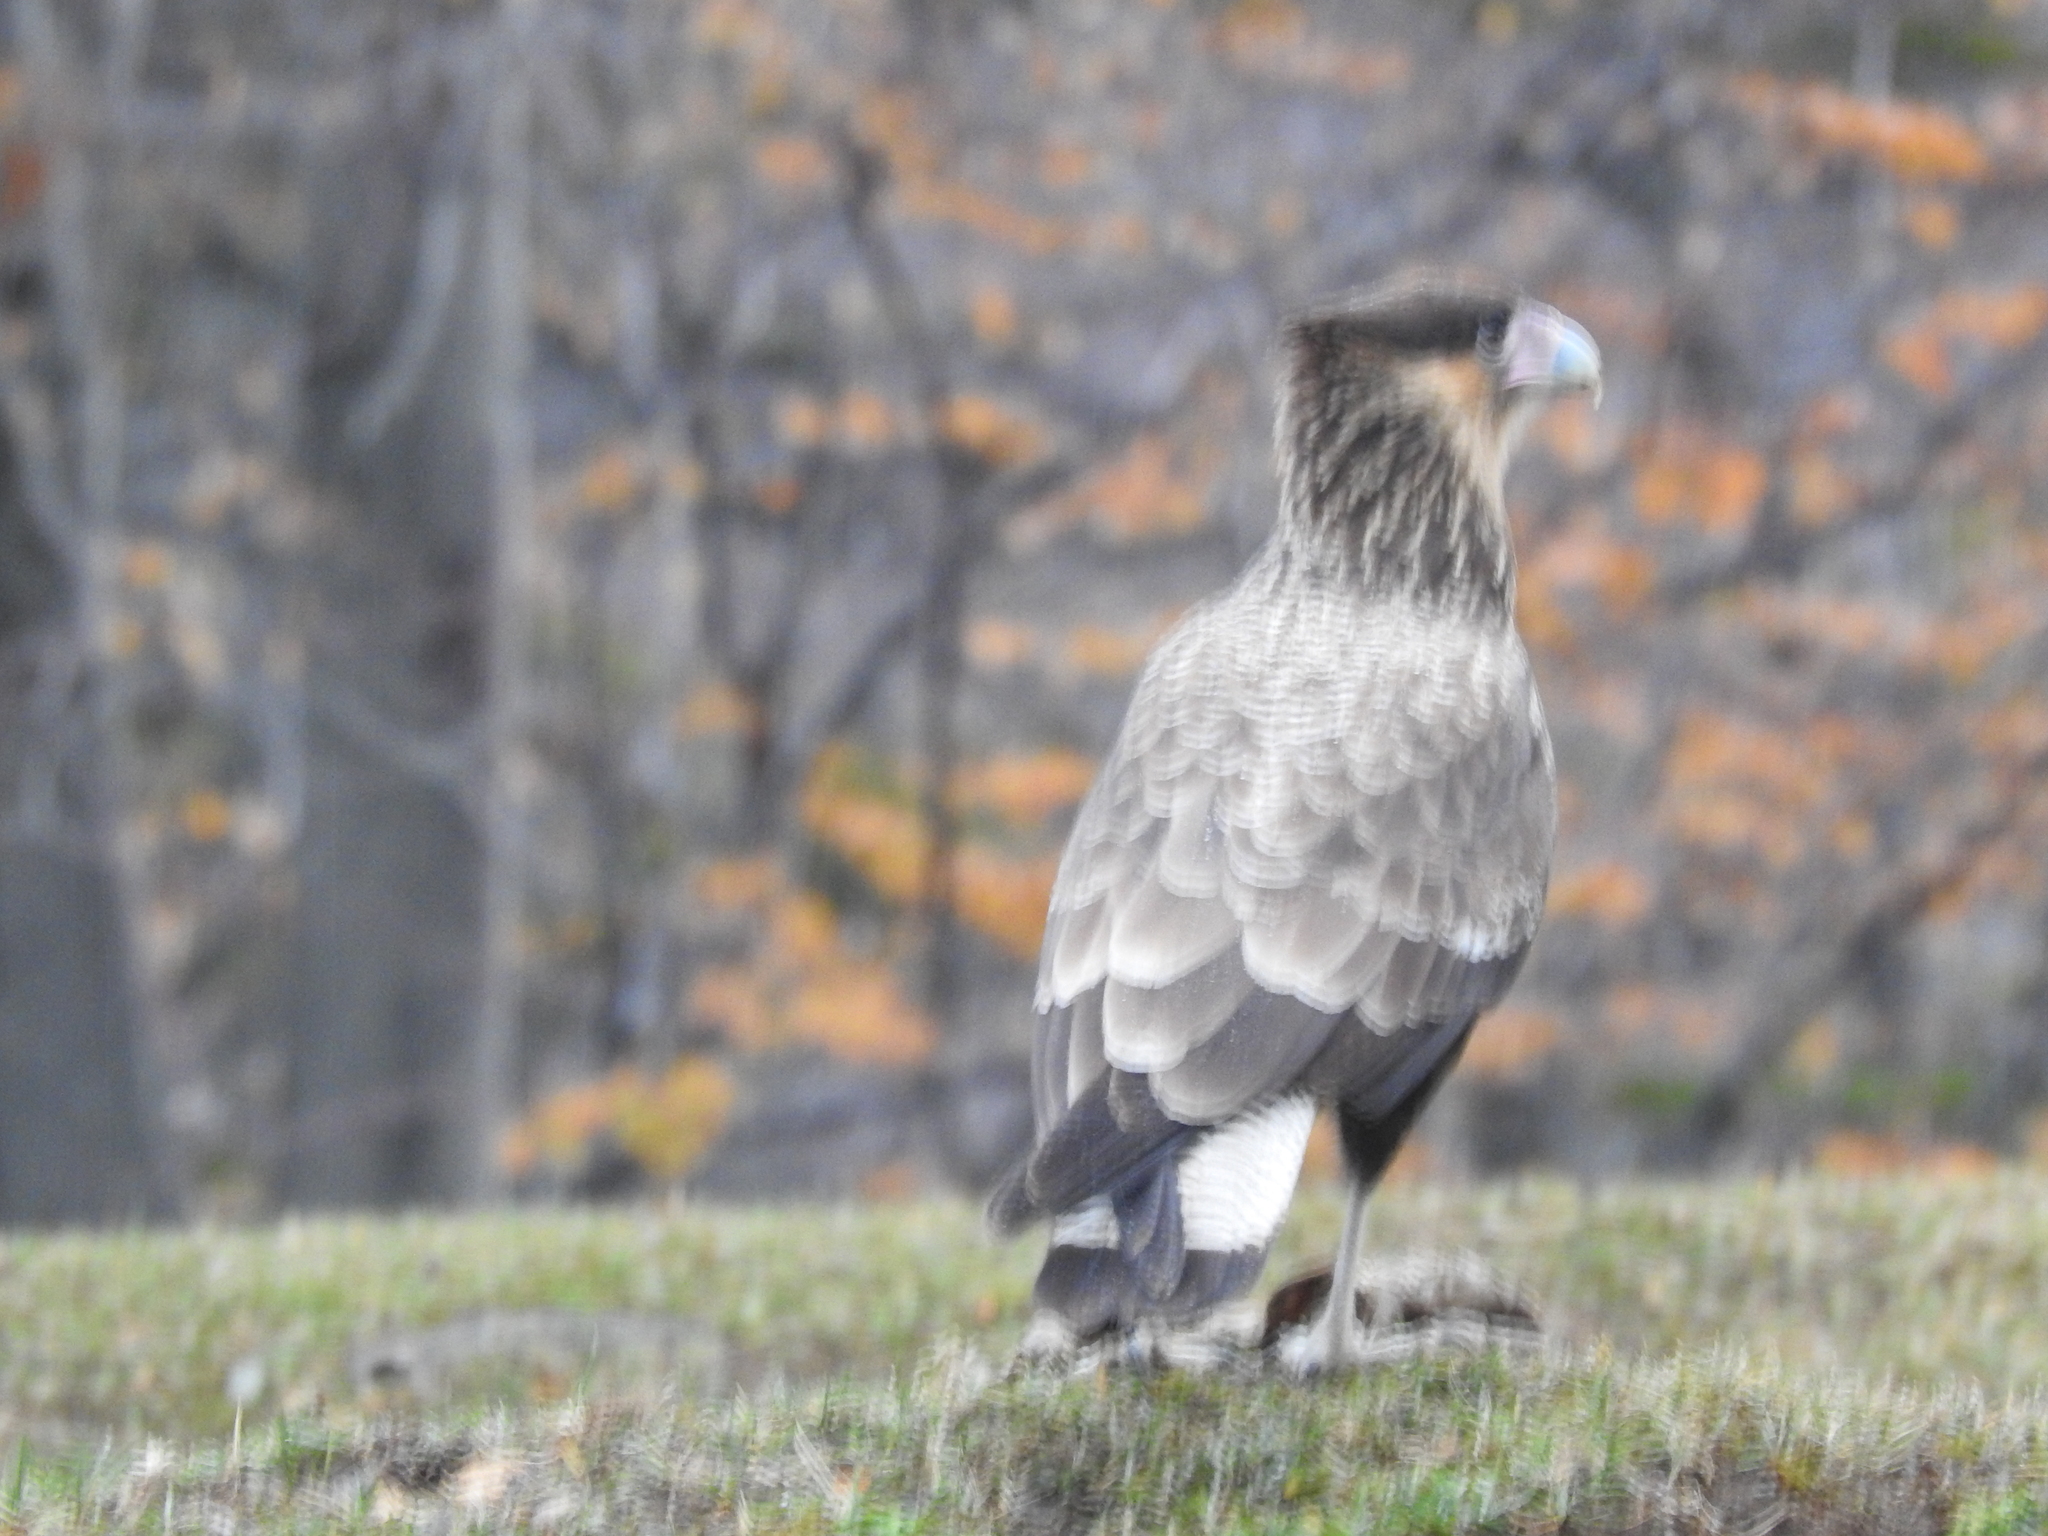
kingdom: Animalia
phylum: Chordata
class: Aves
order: Falconiformes
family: Falconidae
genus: Caracara
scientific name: Caracara plancus
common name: Southern caracara
